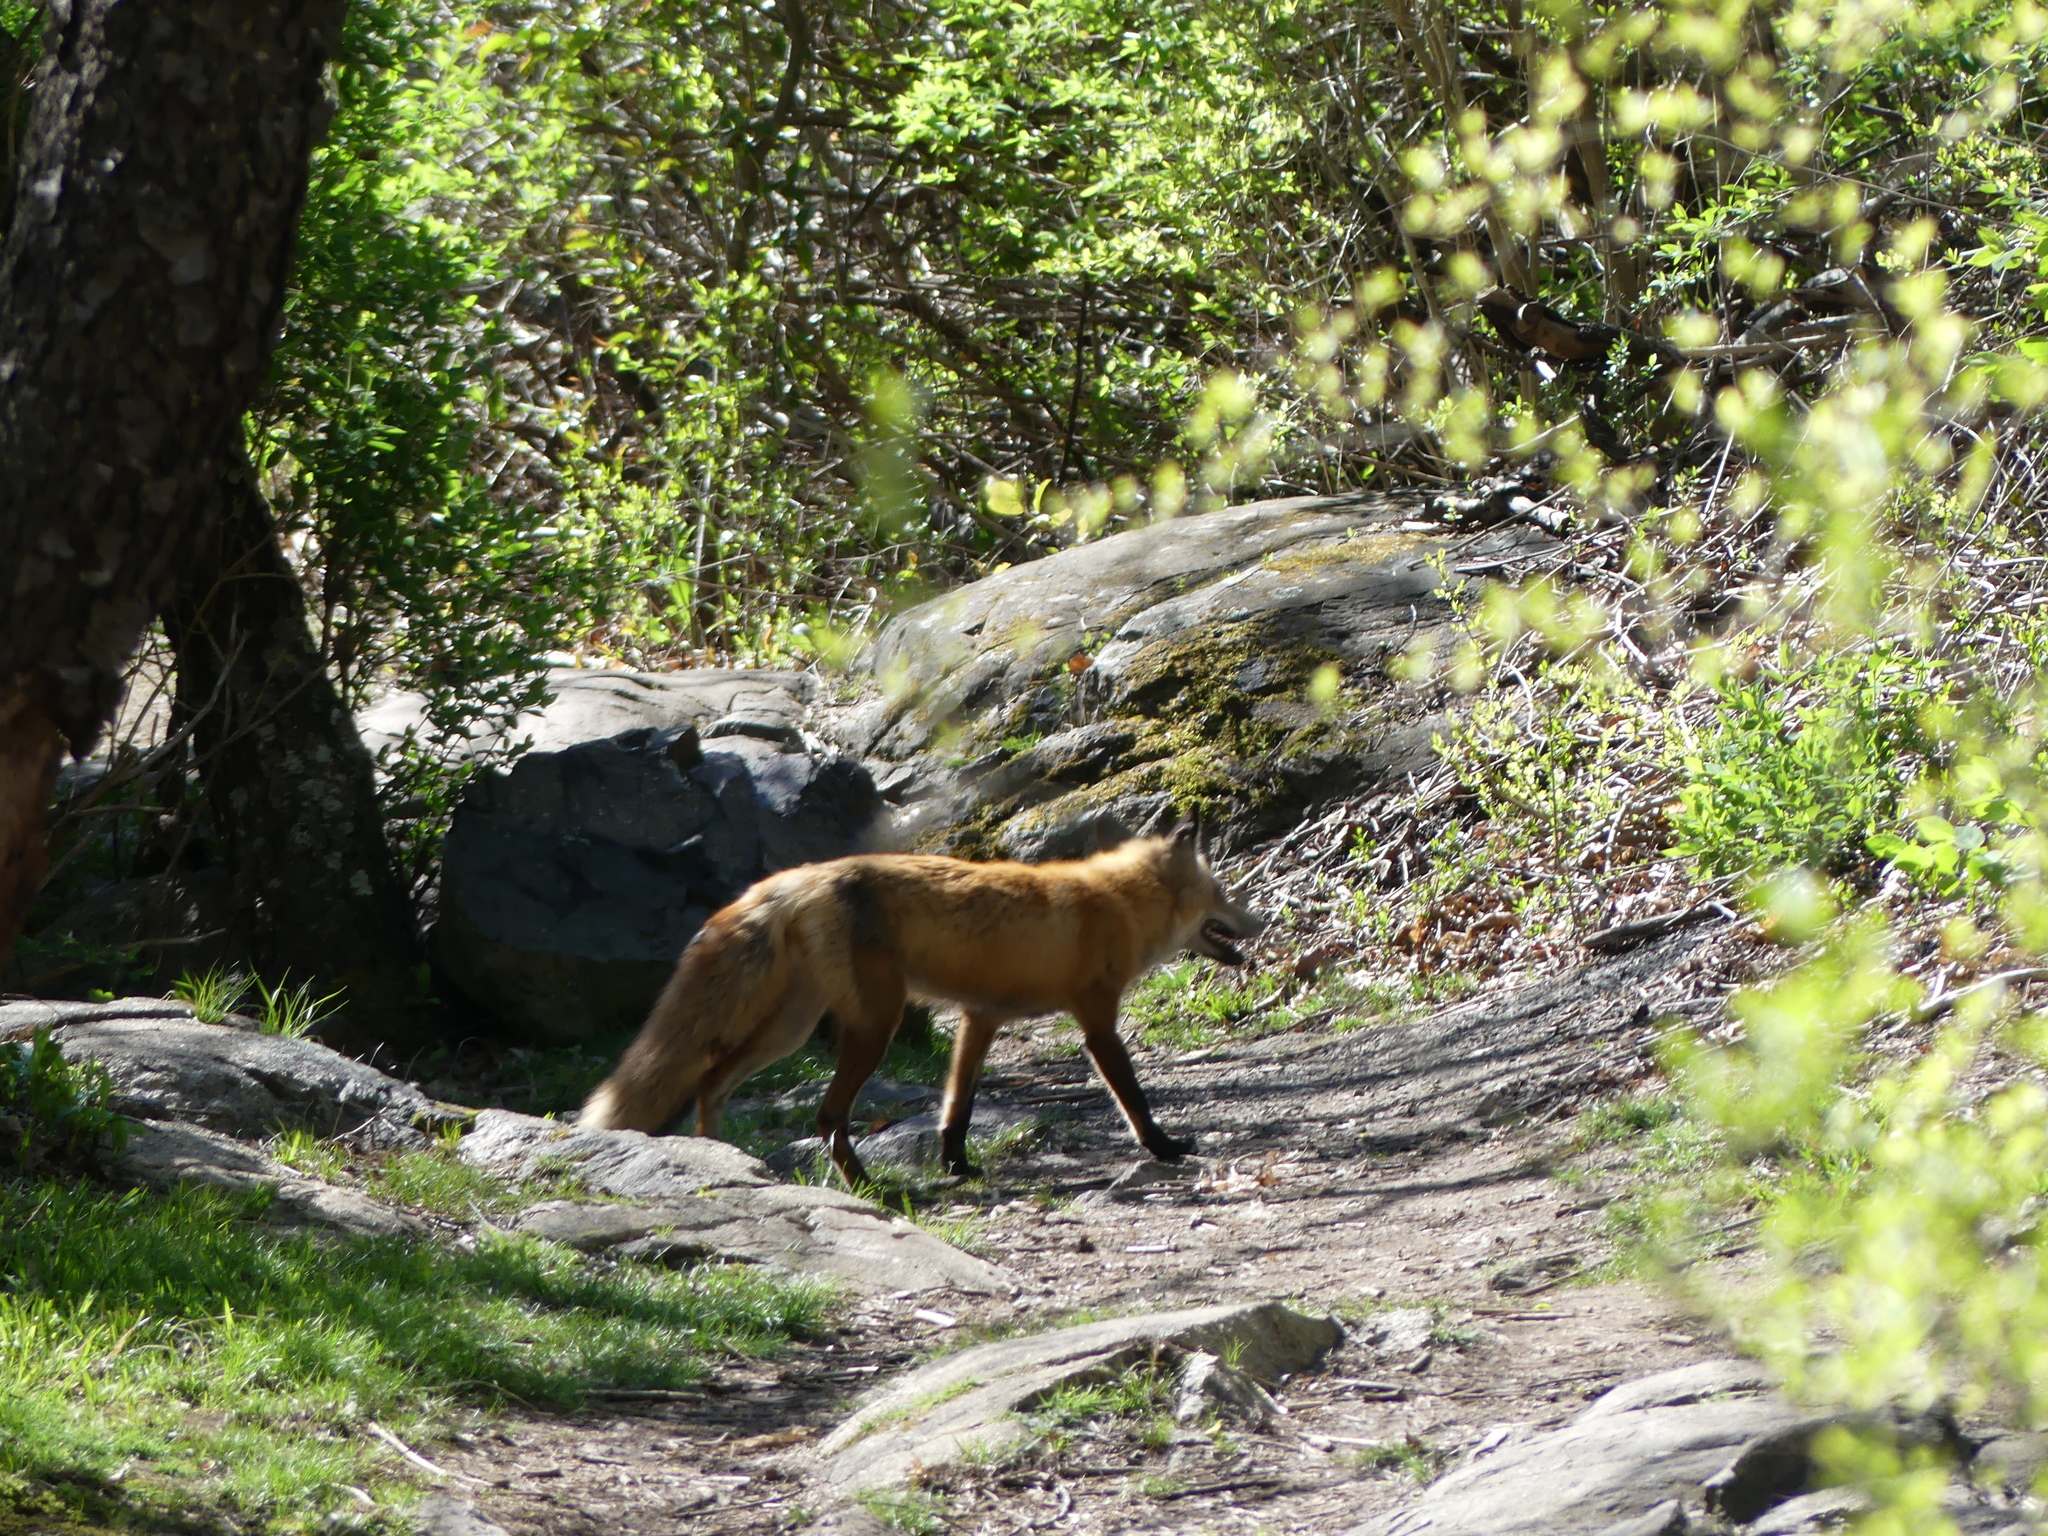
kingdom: Animalia
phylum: Chordata
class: Mammalia
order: Carnivora
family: Canidae
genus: Vulpes
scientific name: Vulpes vulpes
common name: Red fox
